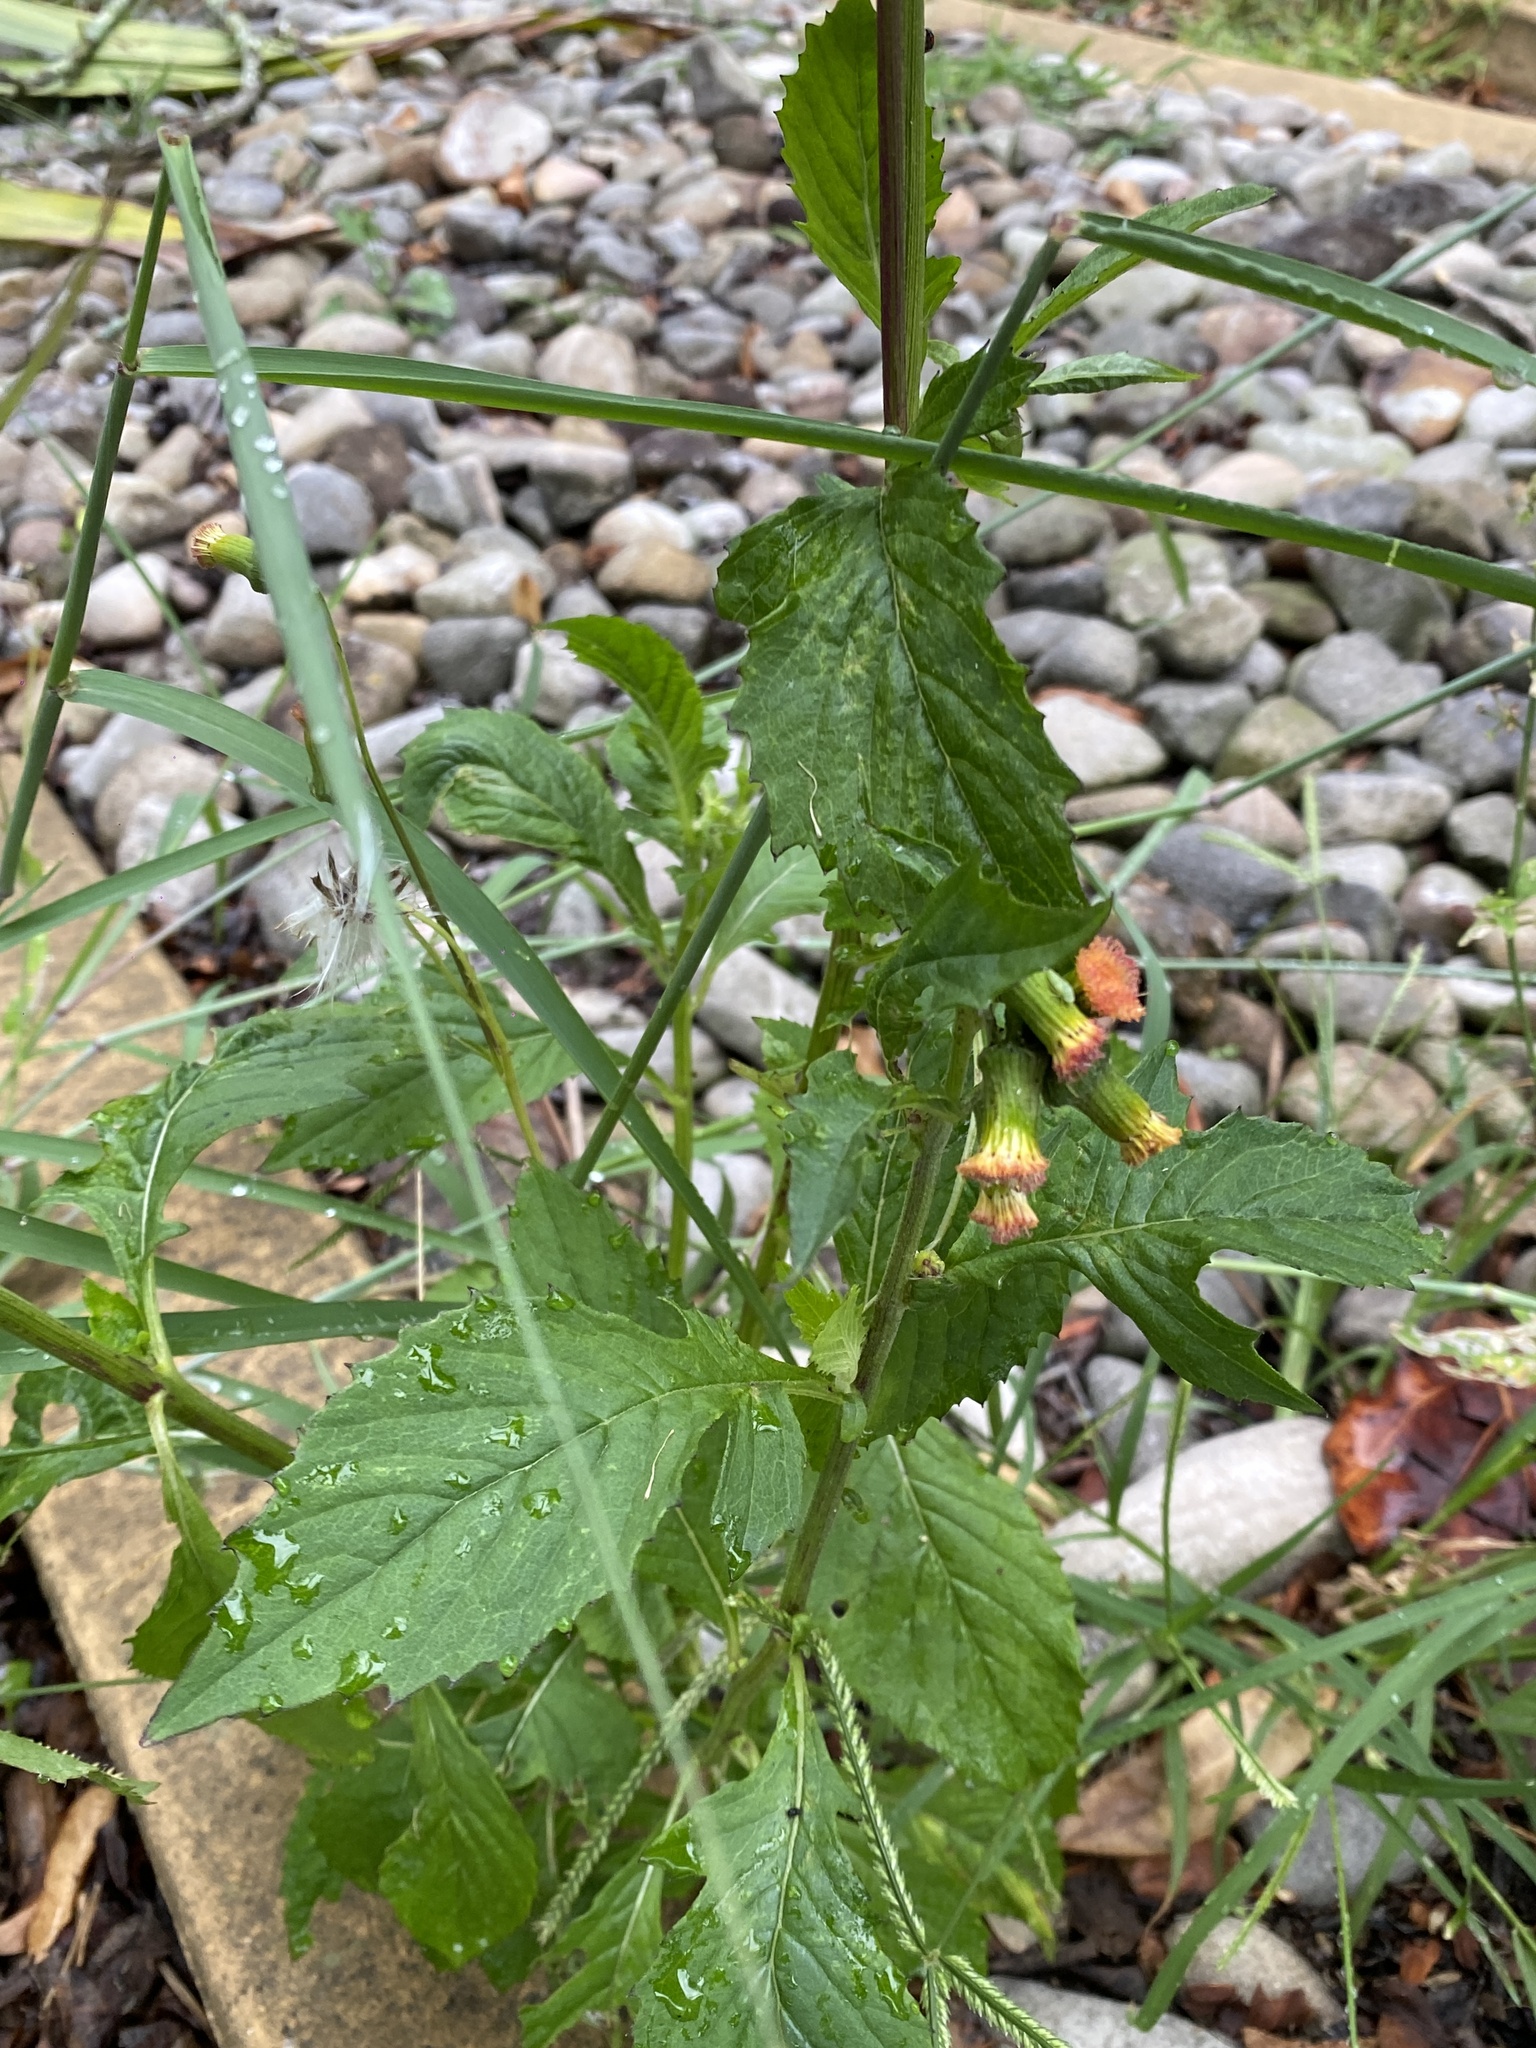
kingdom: Plantae
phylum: Tracheophyta
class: Magnoliopsida
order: Asterales
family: Asteraceae
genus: Crassocephalum
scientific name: Crassocephalum crepidioides
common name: Redflower ragleaf
